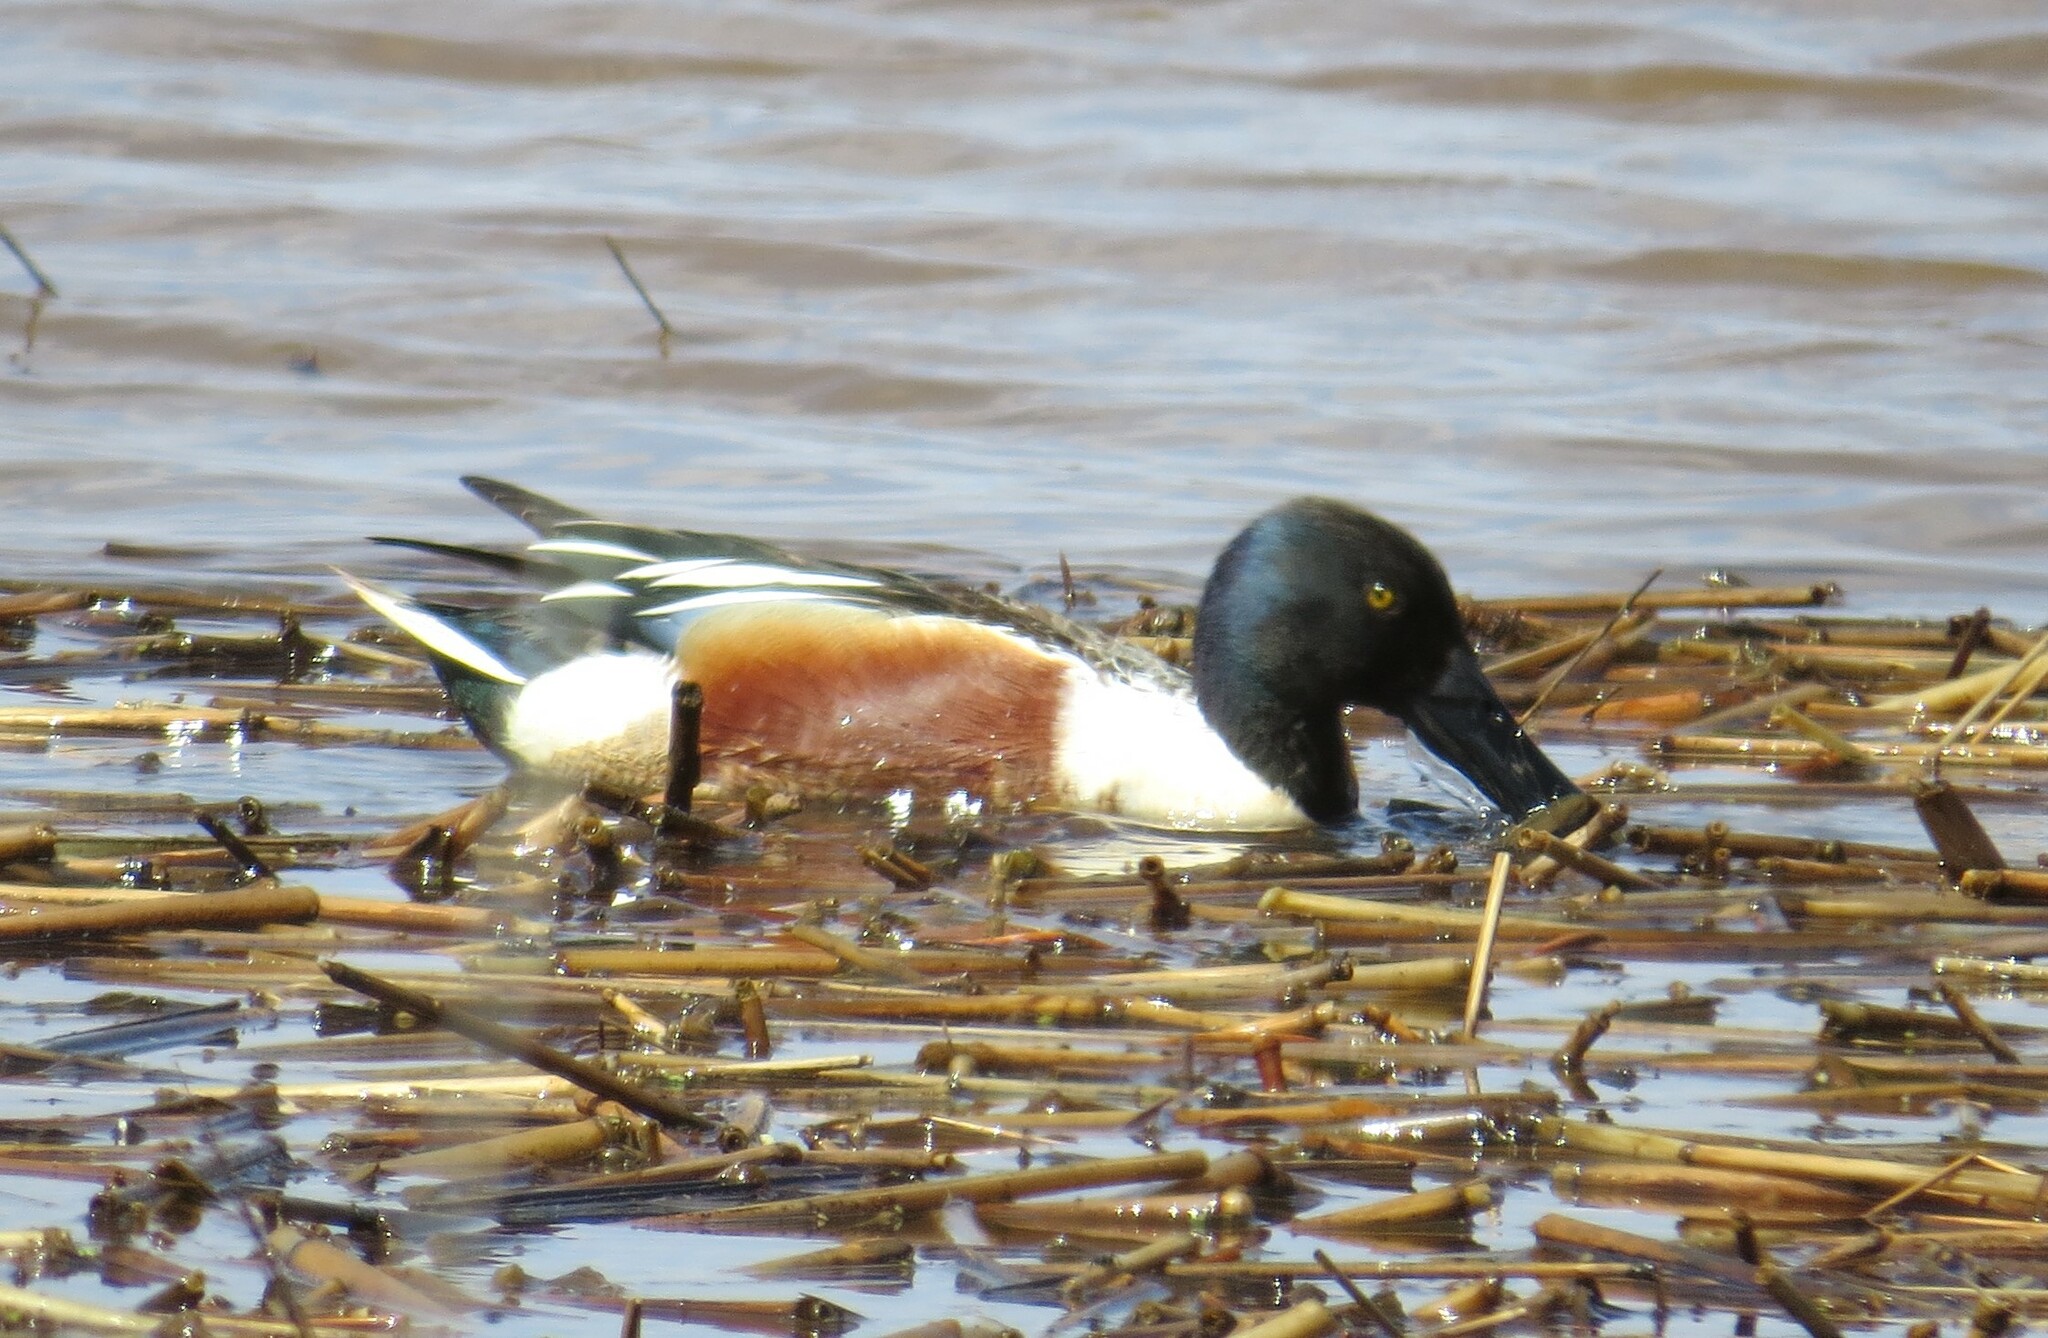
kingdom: Animalia
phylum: Chordata
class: Aves
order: Anseriformes
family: Anatidae
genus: Spatula
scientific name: Spatula clypeata
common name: Northern shoveler
